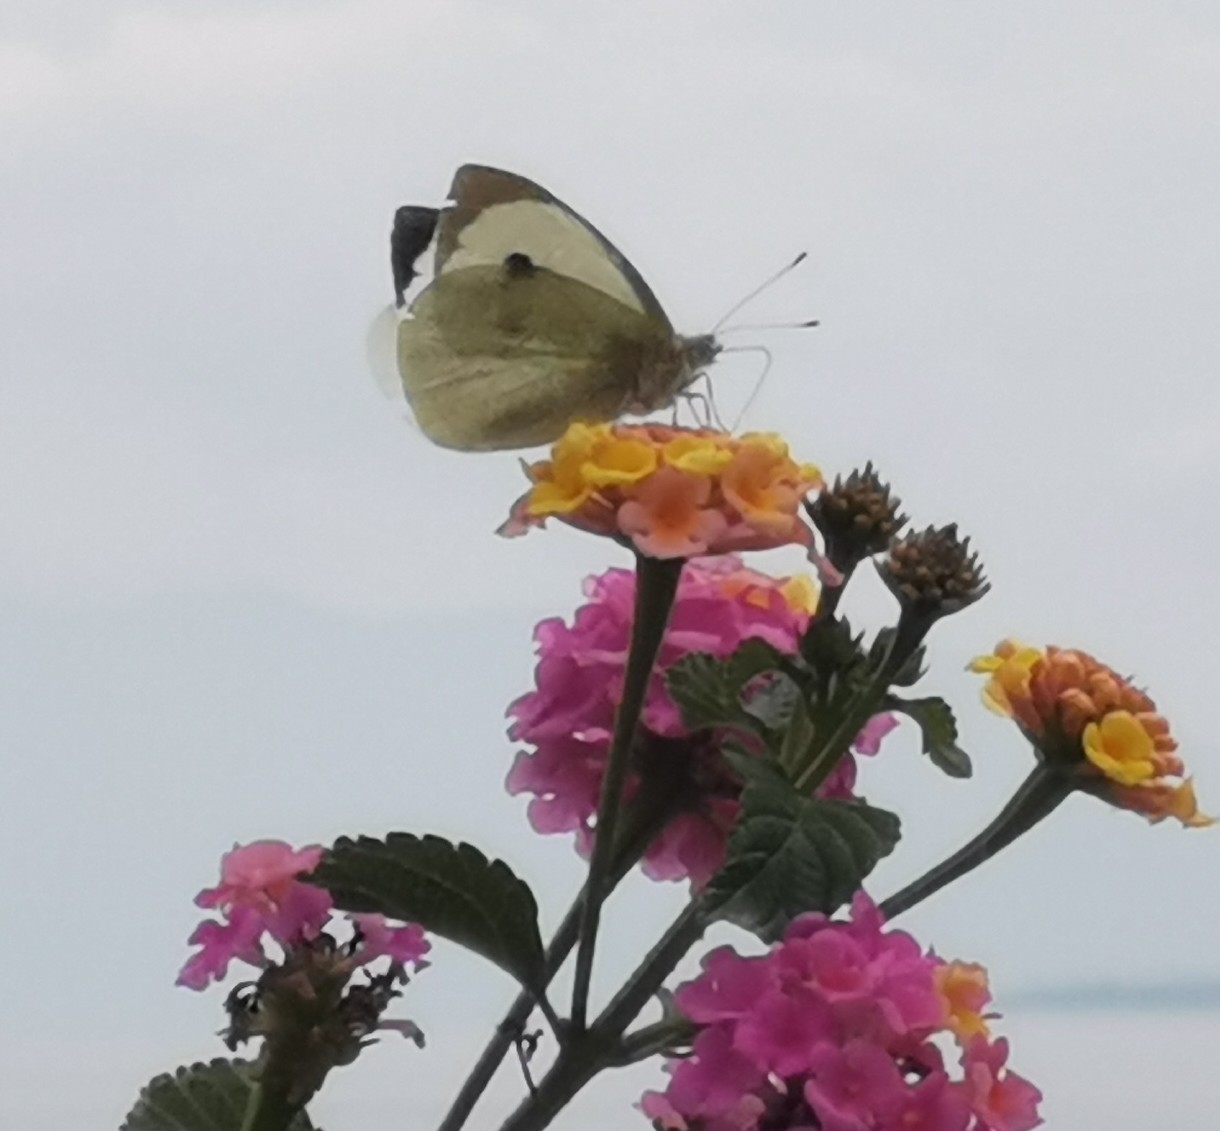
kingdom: Animalia
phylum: Arthropoda
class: Insecta
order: Lepidoptera
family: Pieridae
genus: Pieris
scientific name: Pieris brassicae
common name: Large white
